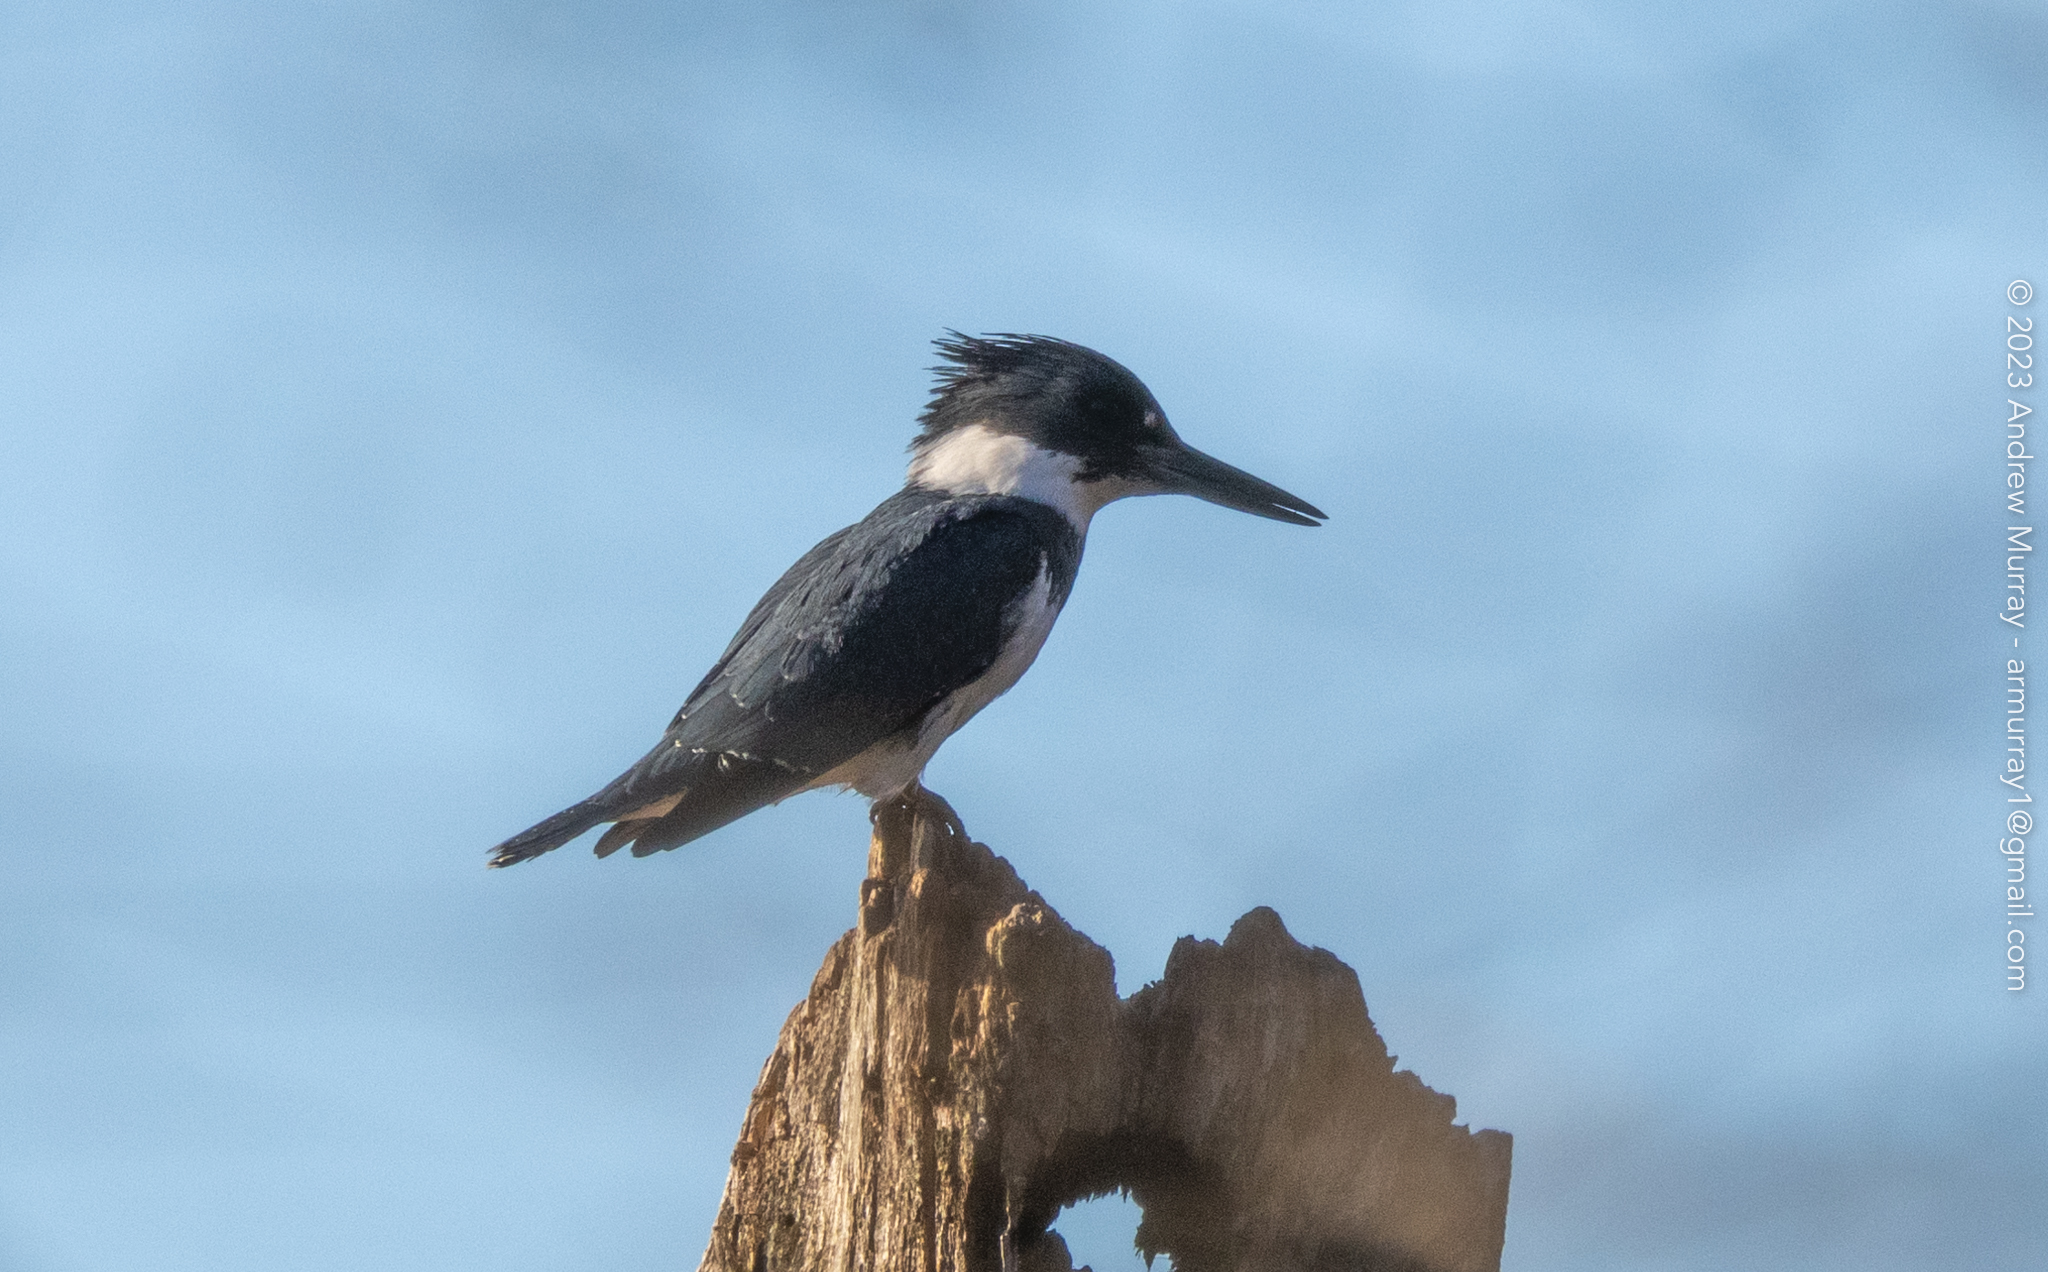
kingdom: Animalia
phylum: Chordata
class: Aves
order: Coraciiformes
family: Alcedinidae
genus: Megaceryle
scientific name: Megaceryle alcyon
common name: Belted kingfisher
